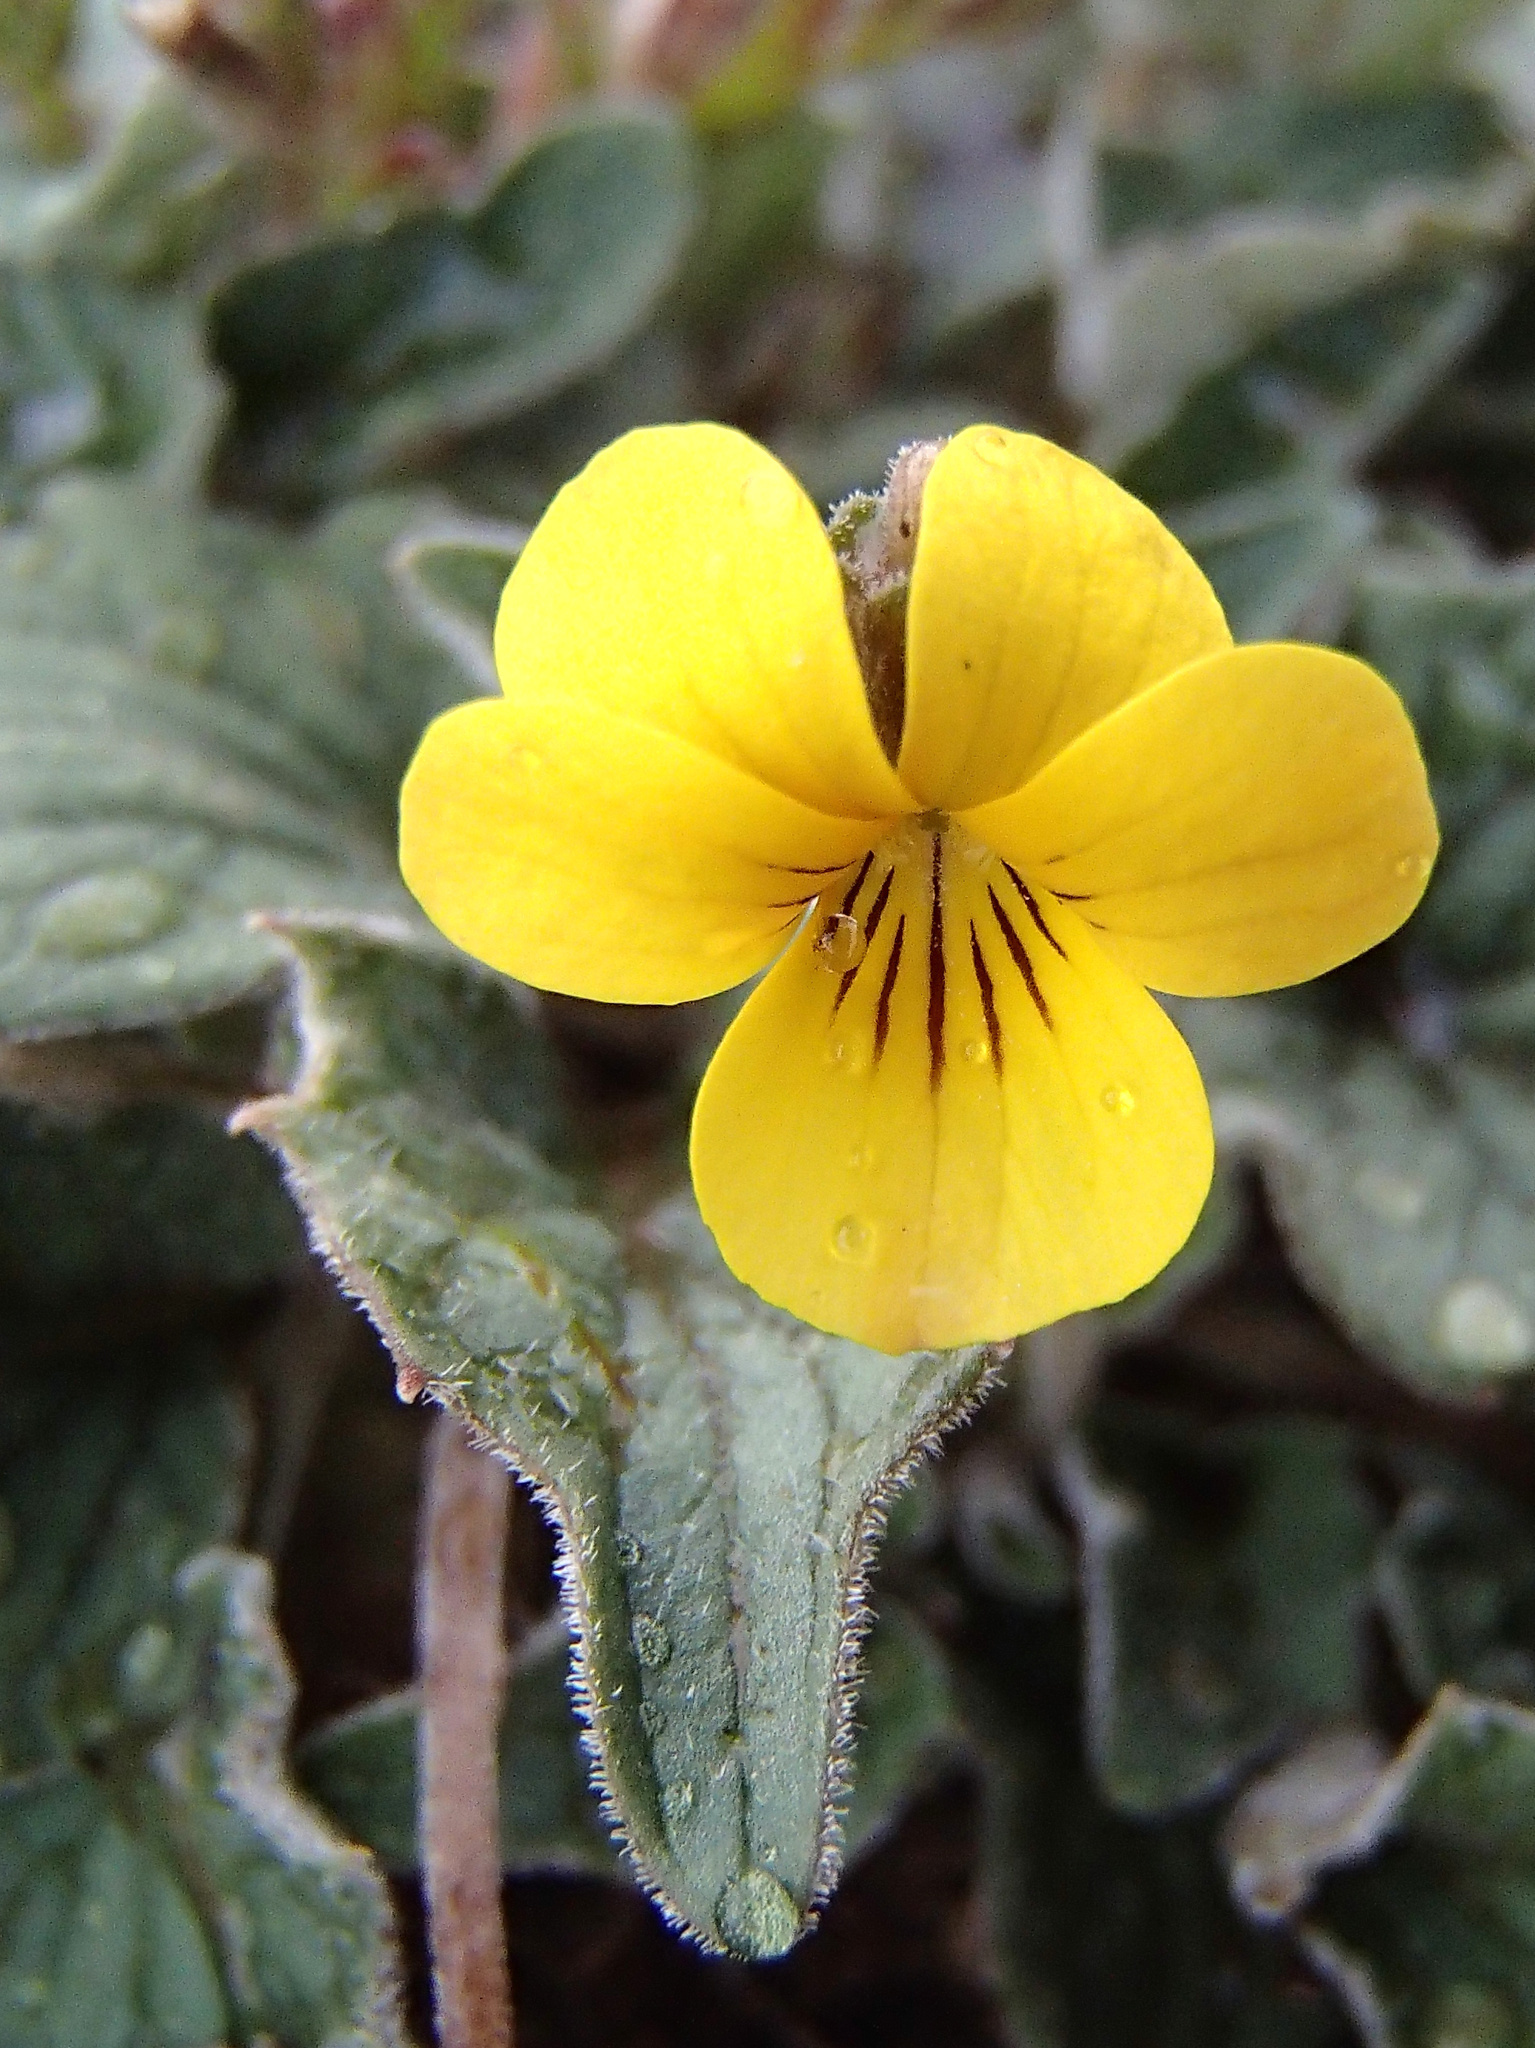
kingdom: Plantae
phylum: Tracheophyta
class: Magnoliopsida
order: Malpighiales
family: Violaceae
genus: Viola
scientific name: Viola purpurea
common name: Pine violet
